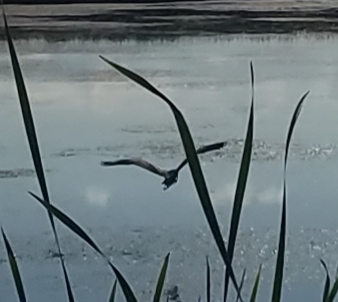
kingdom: Animalia
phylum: Chordata
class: Aves
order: Pelecaniformes
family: Ardeidae
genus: Butorides
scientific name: Butorides virescens
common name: Green heron
